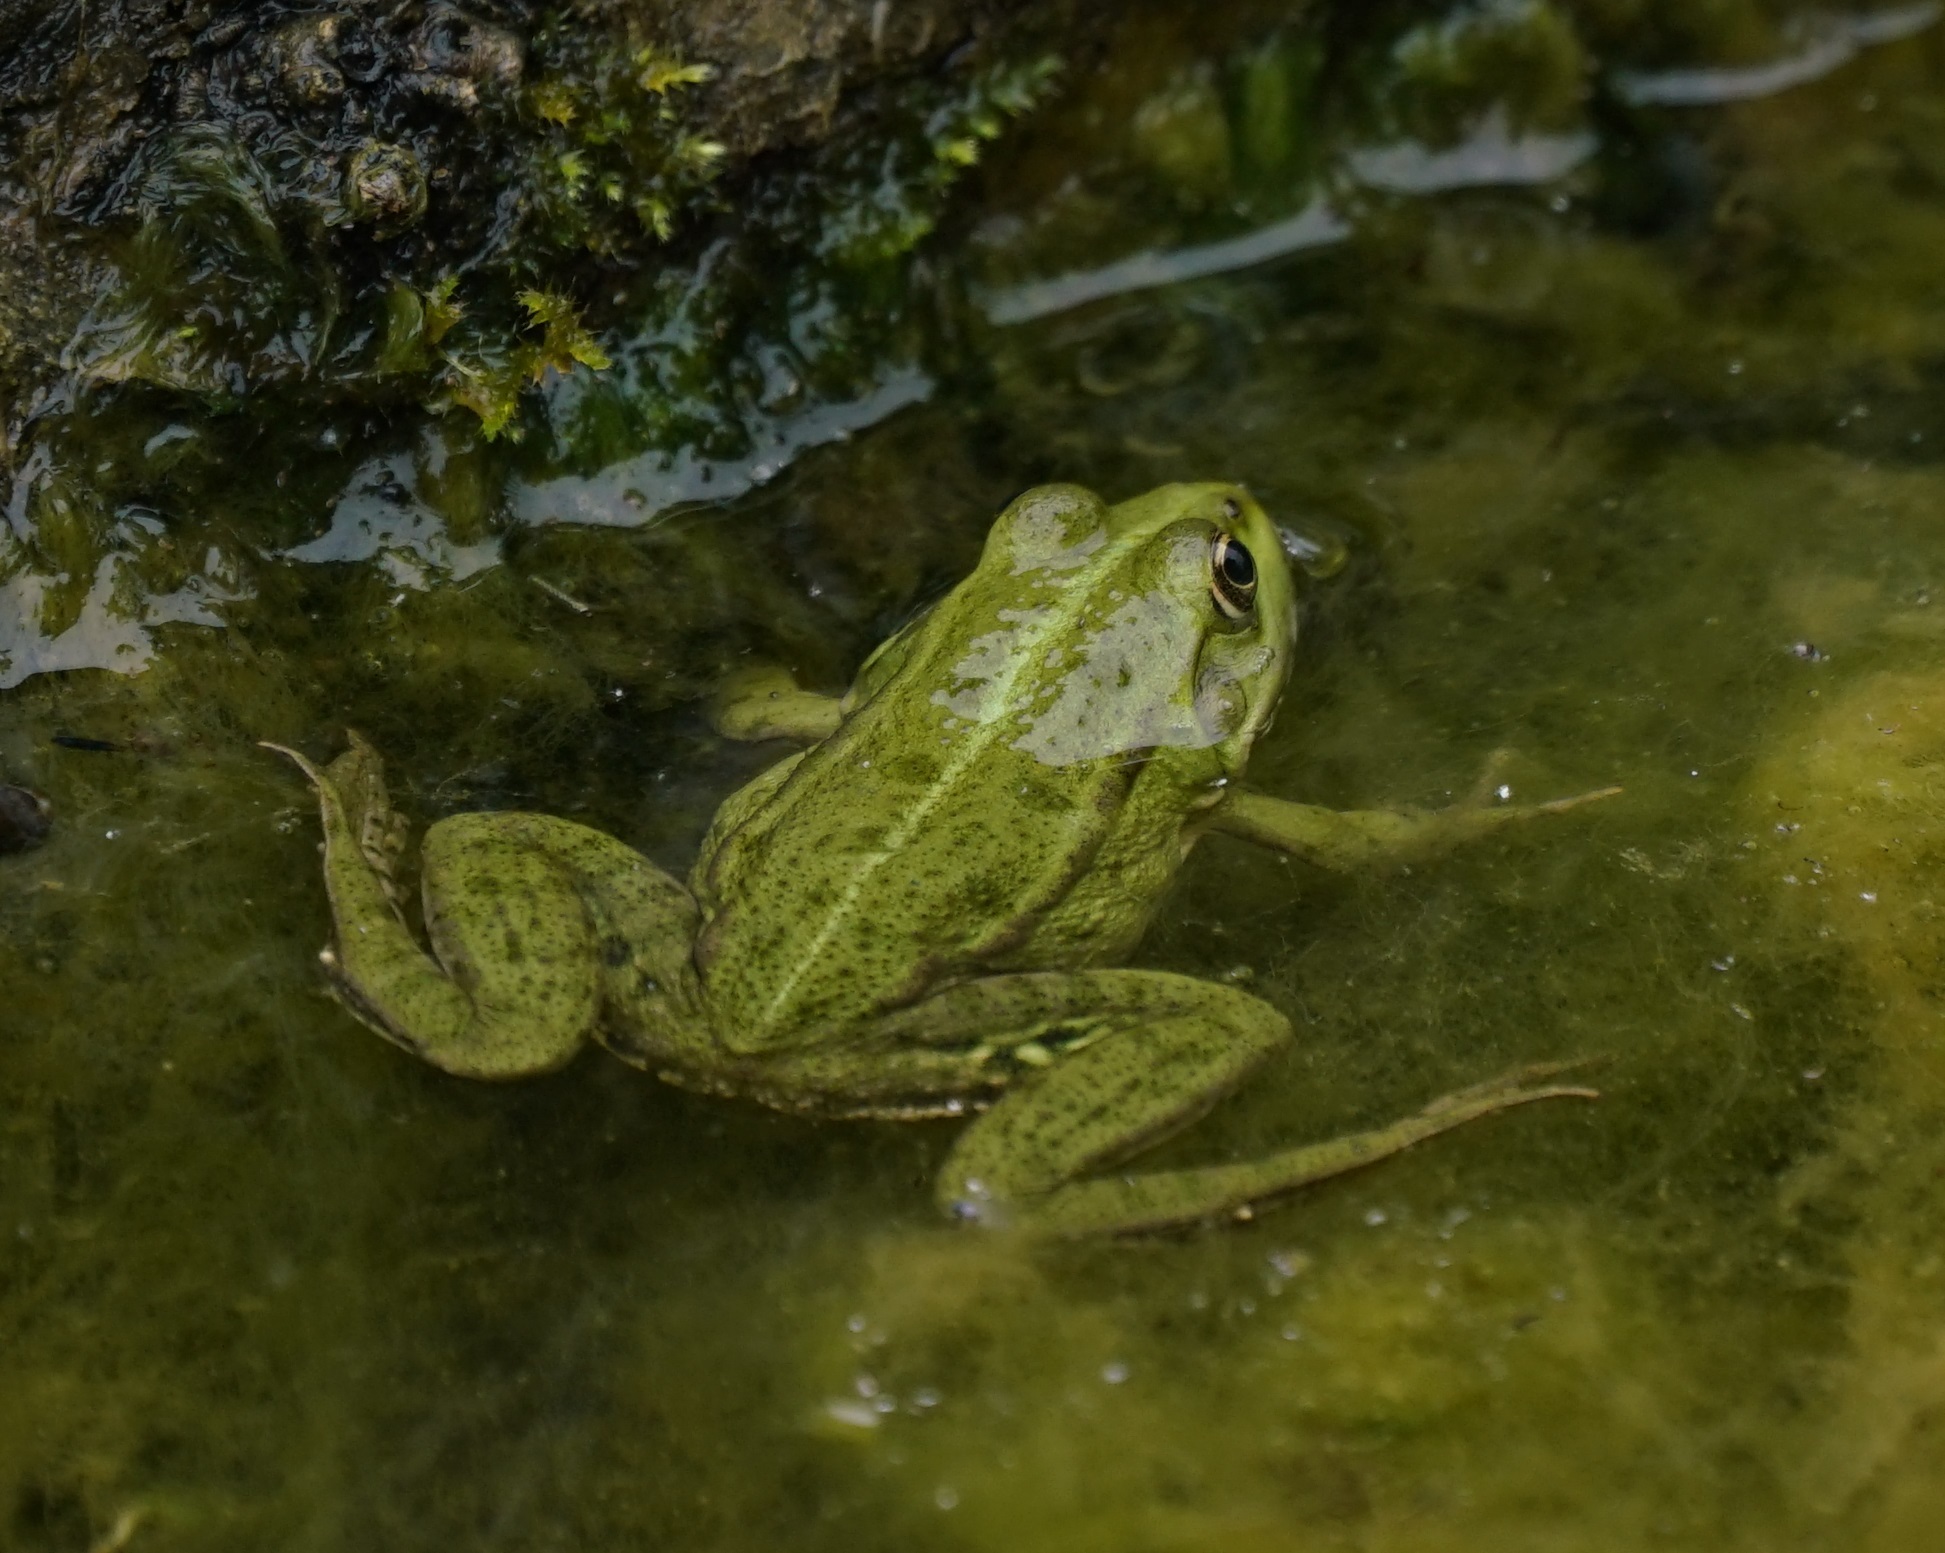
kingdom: Animalia
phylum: Chordata
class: Amphibia
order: Anura
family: Ranidae
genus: Pelophylax
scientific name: Pelophylax
